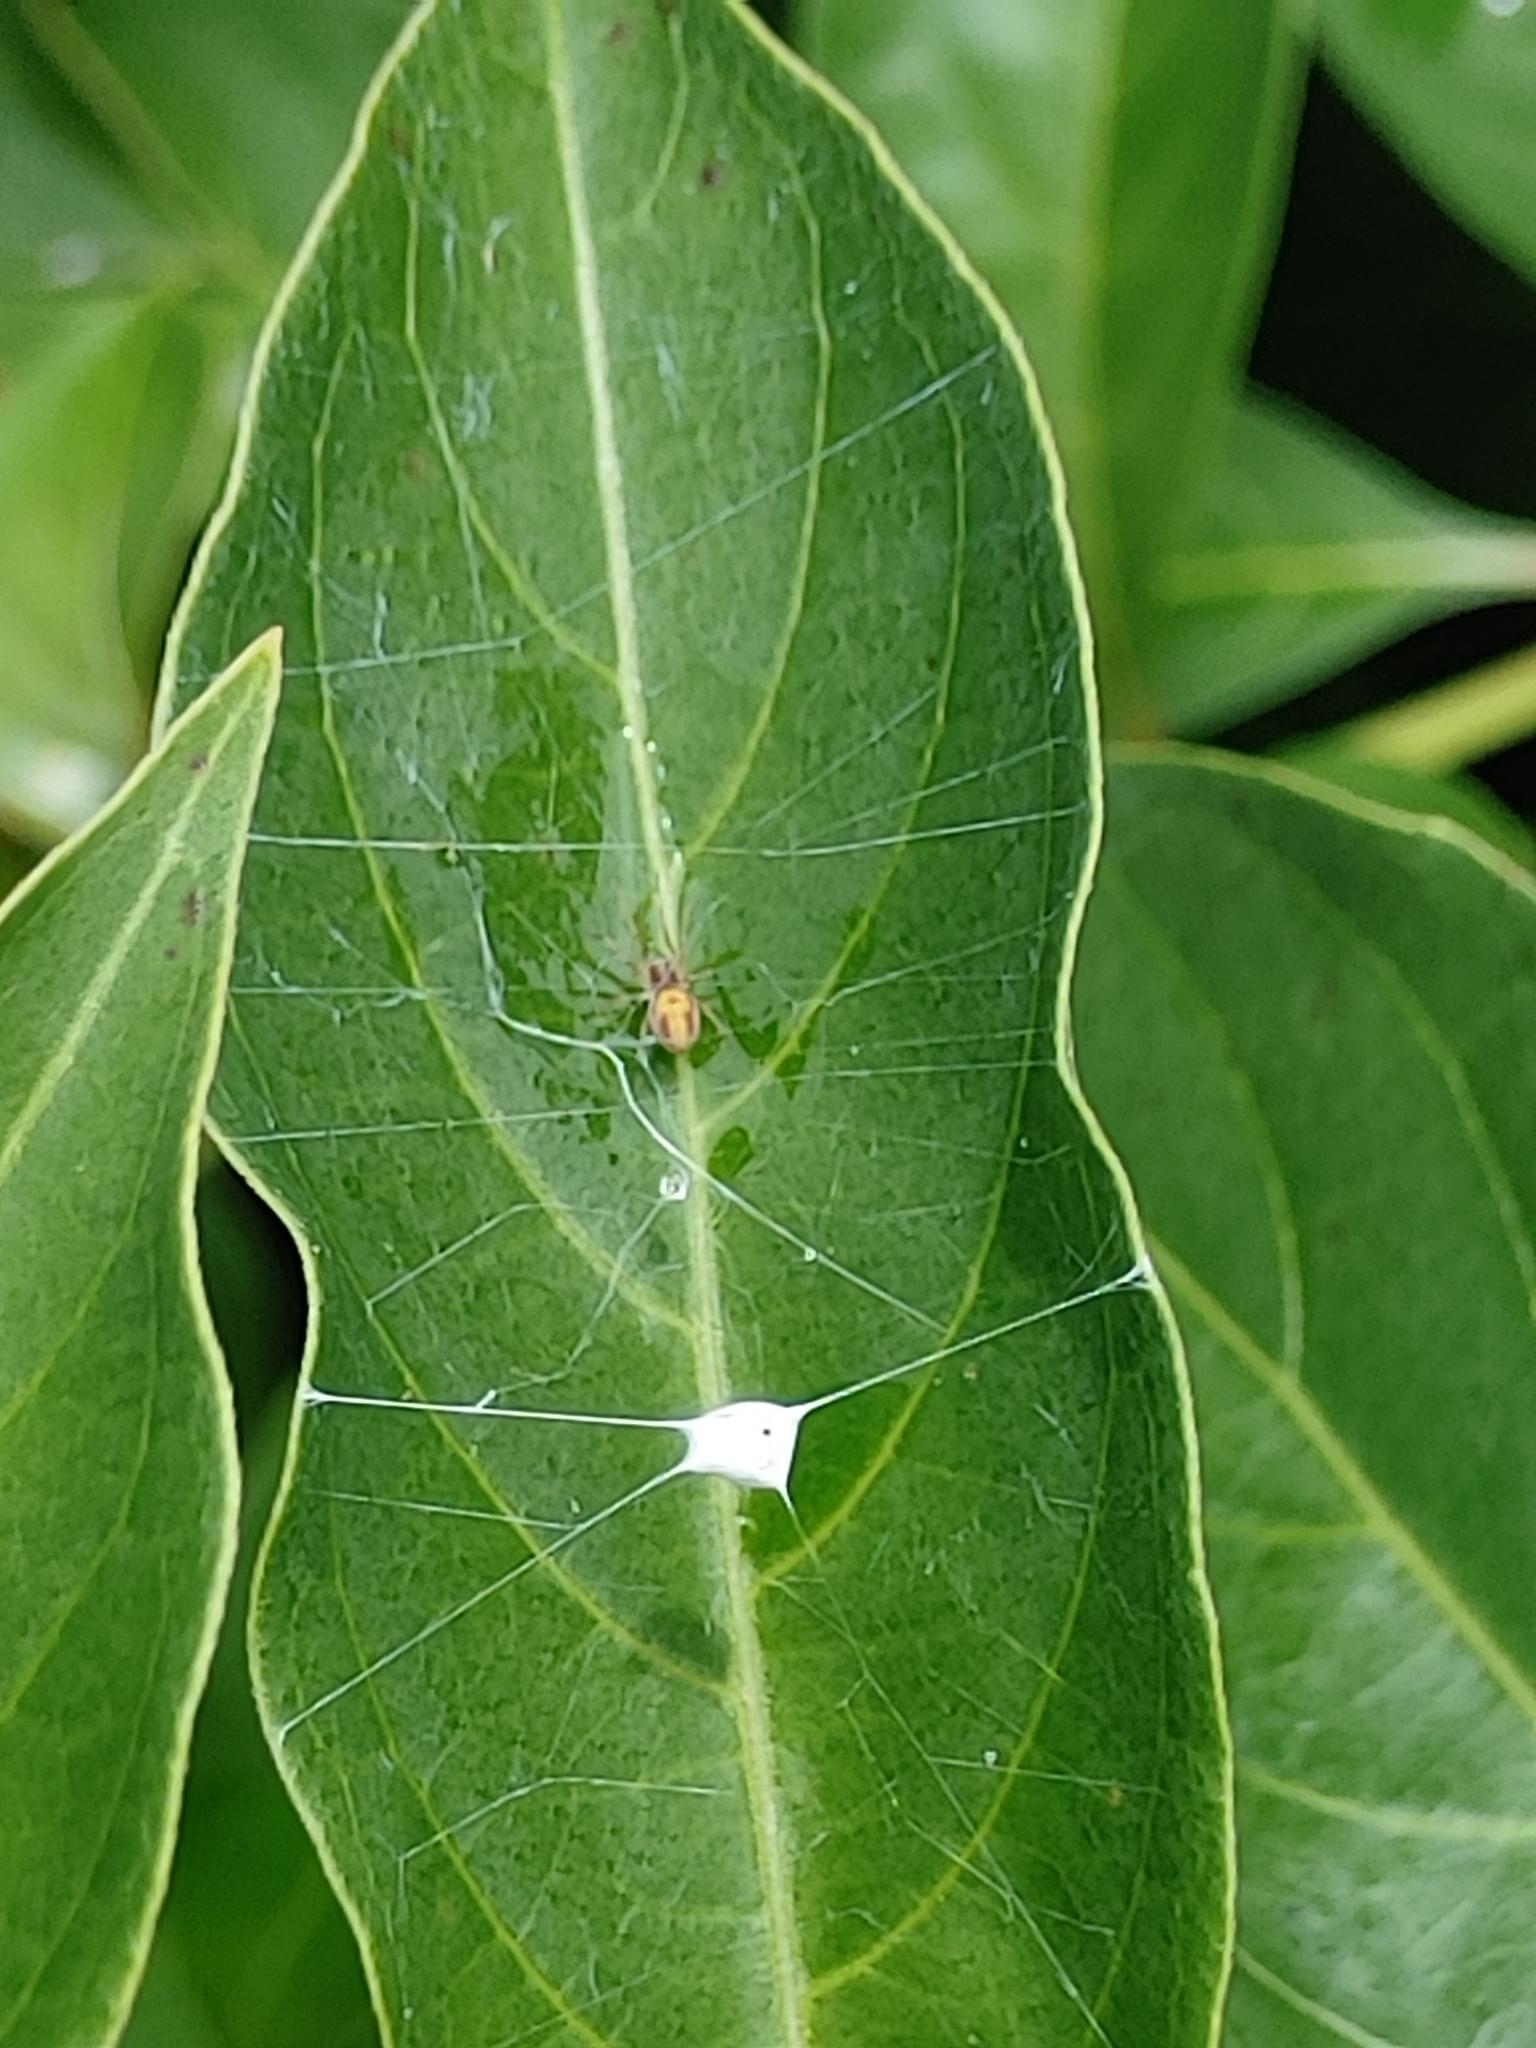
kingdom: Animalia
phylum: Arthropoda
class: Arachnida
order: Araneae
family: Dictynidae
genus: Emblyna
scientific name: Emblyna florens
